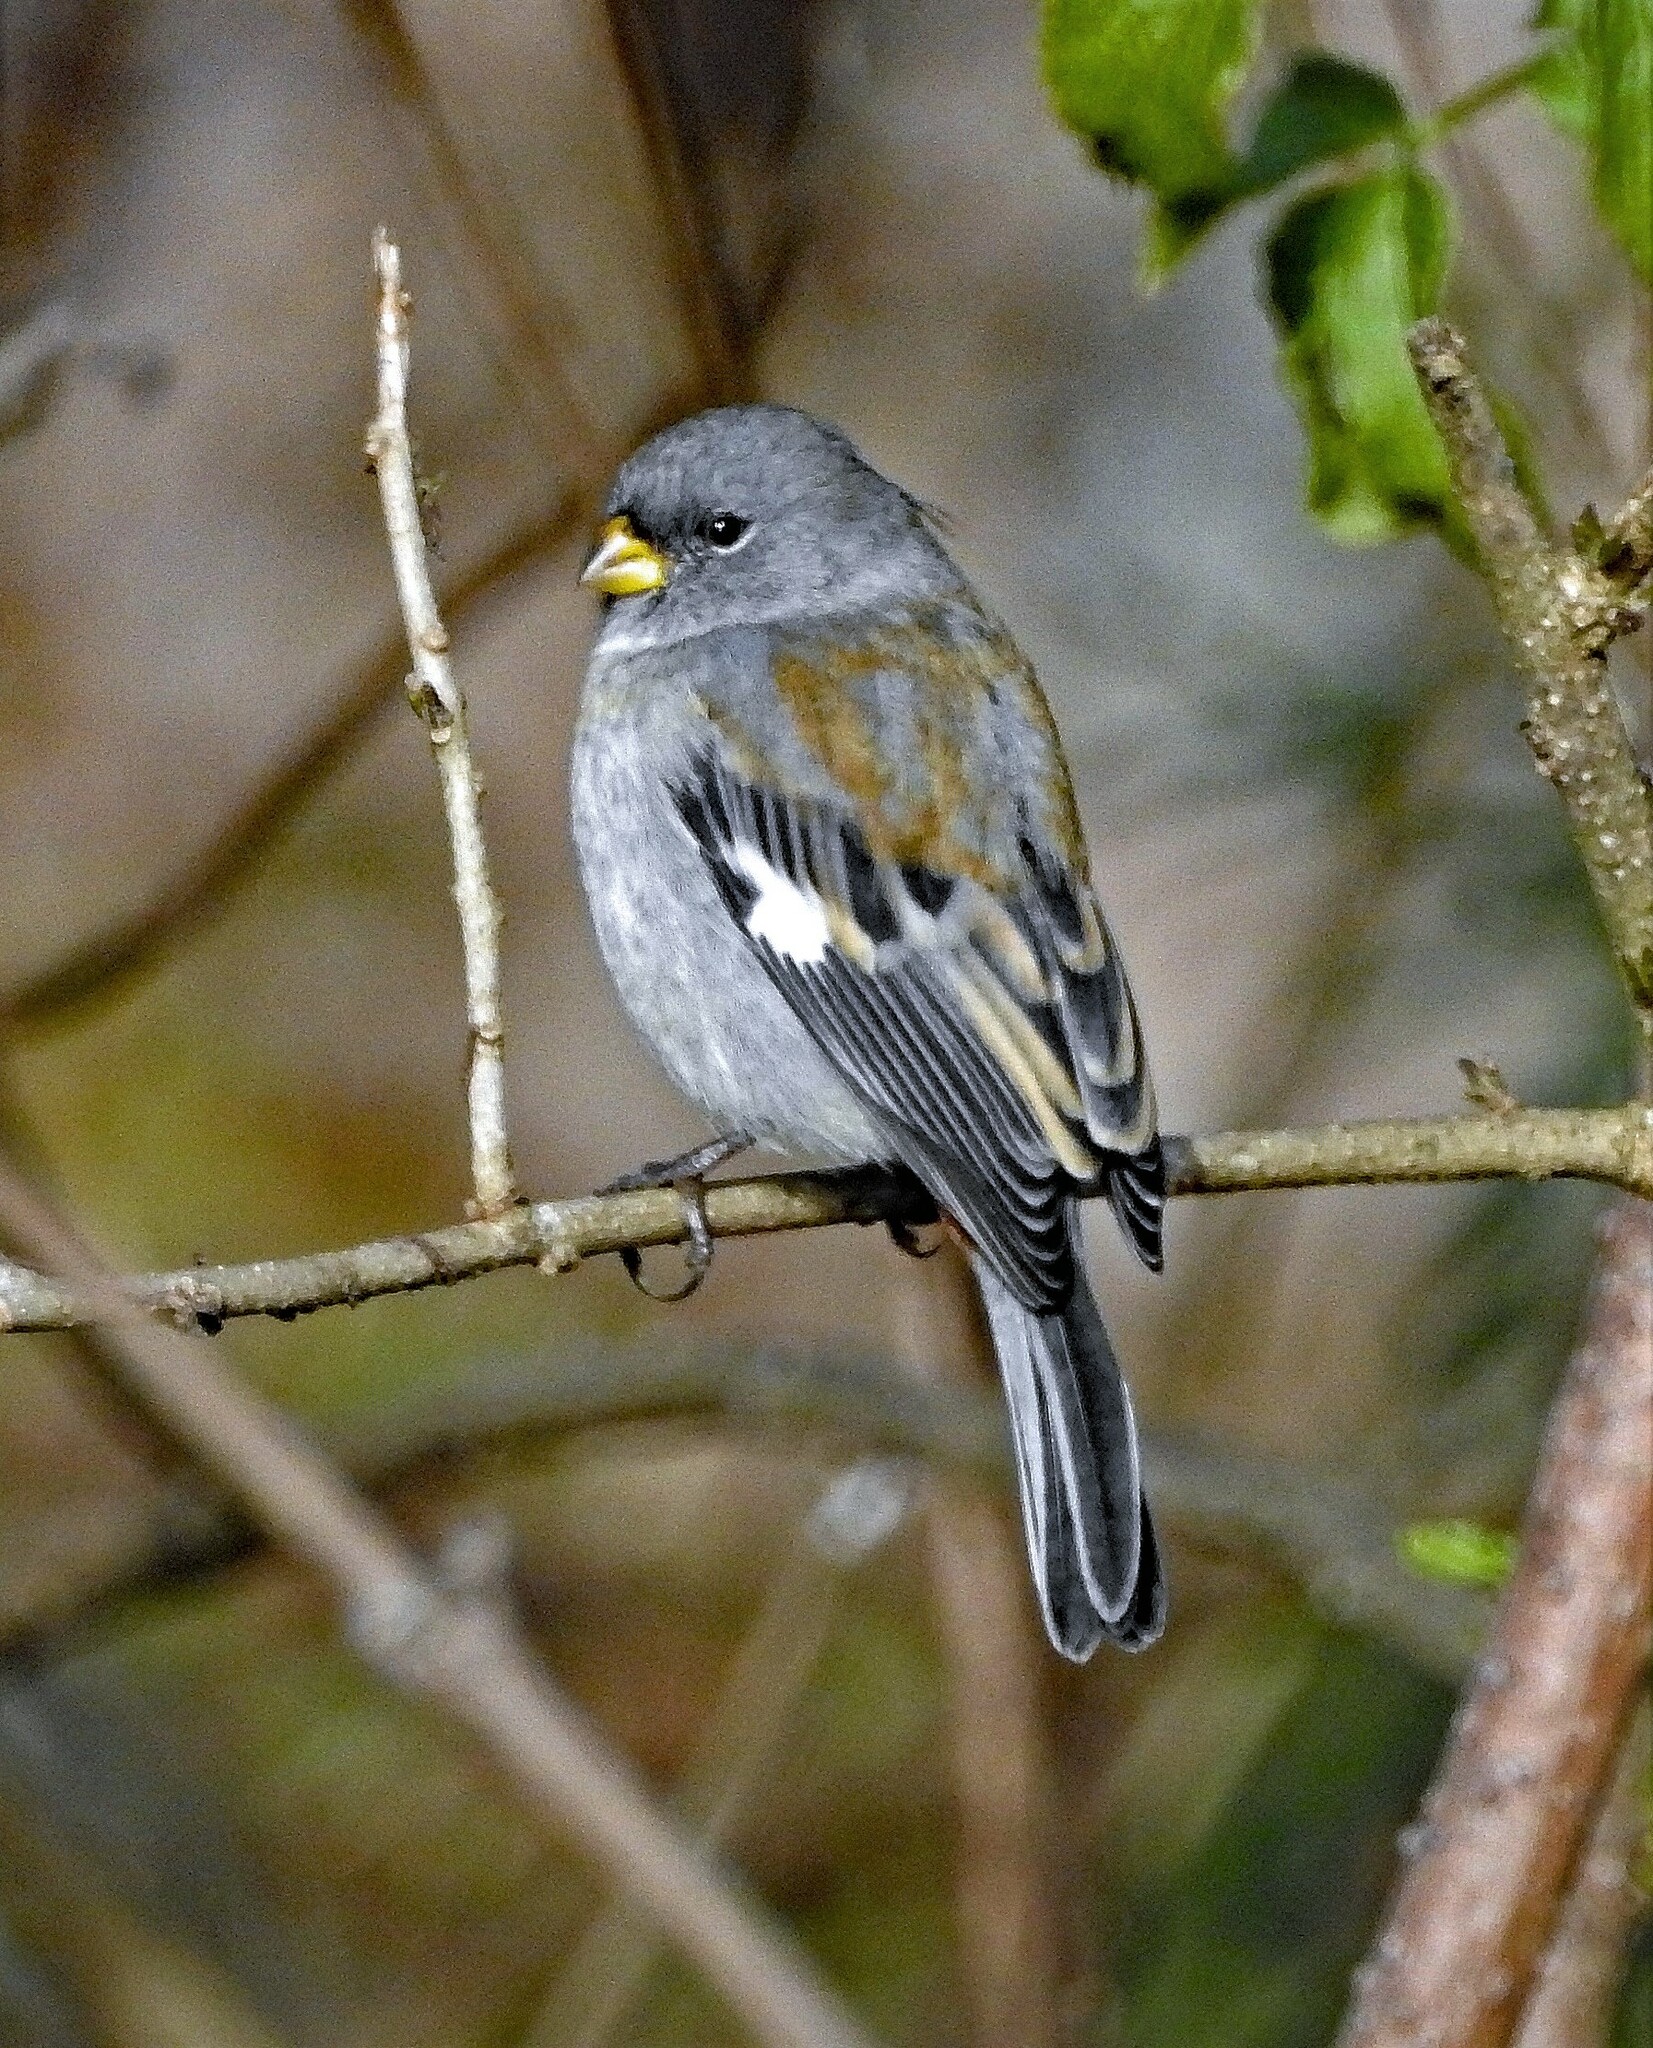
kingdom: Animalia
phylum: Chordata
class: Aves
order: Passeriformes
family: Thraupidae
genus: Catamenia
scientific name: Catamenia analis
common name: Band-tailed seedeater
